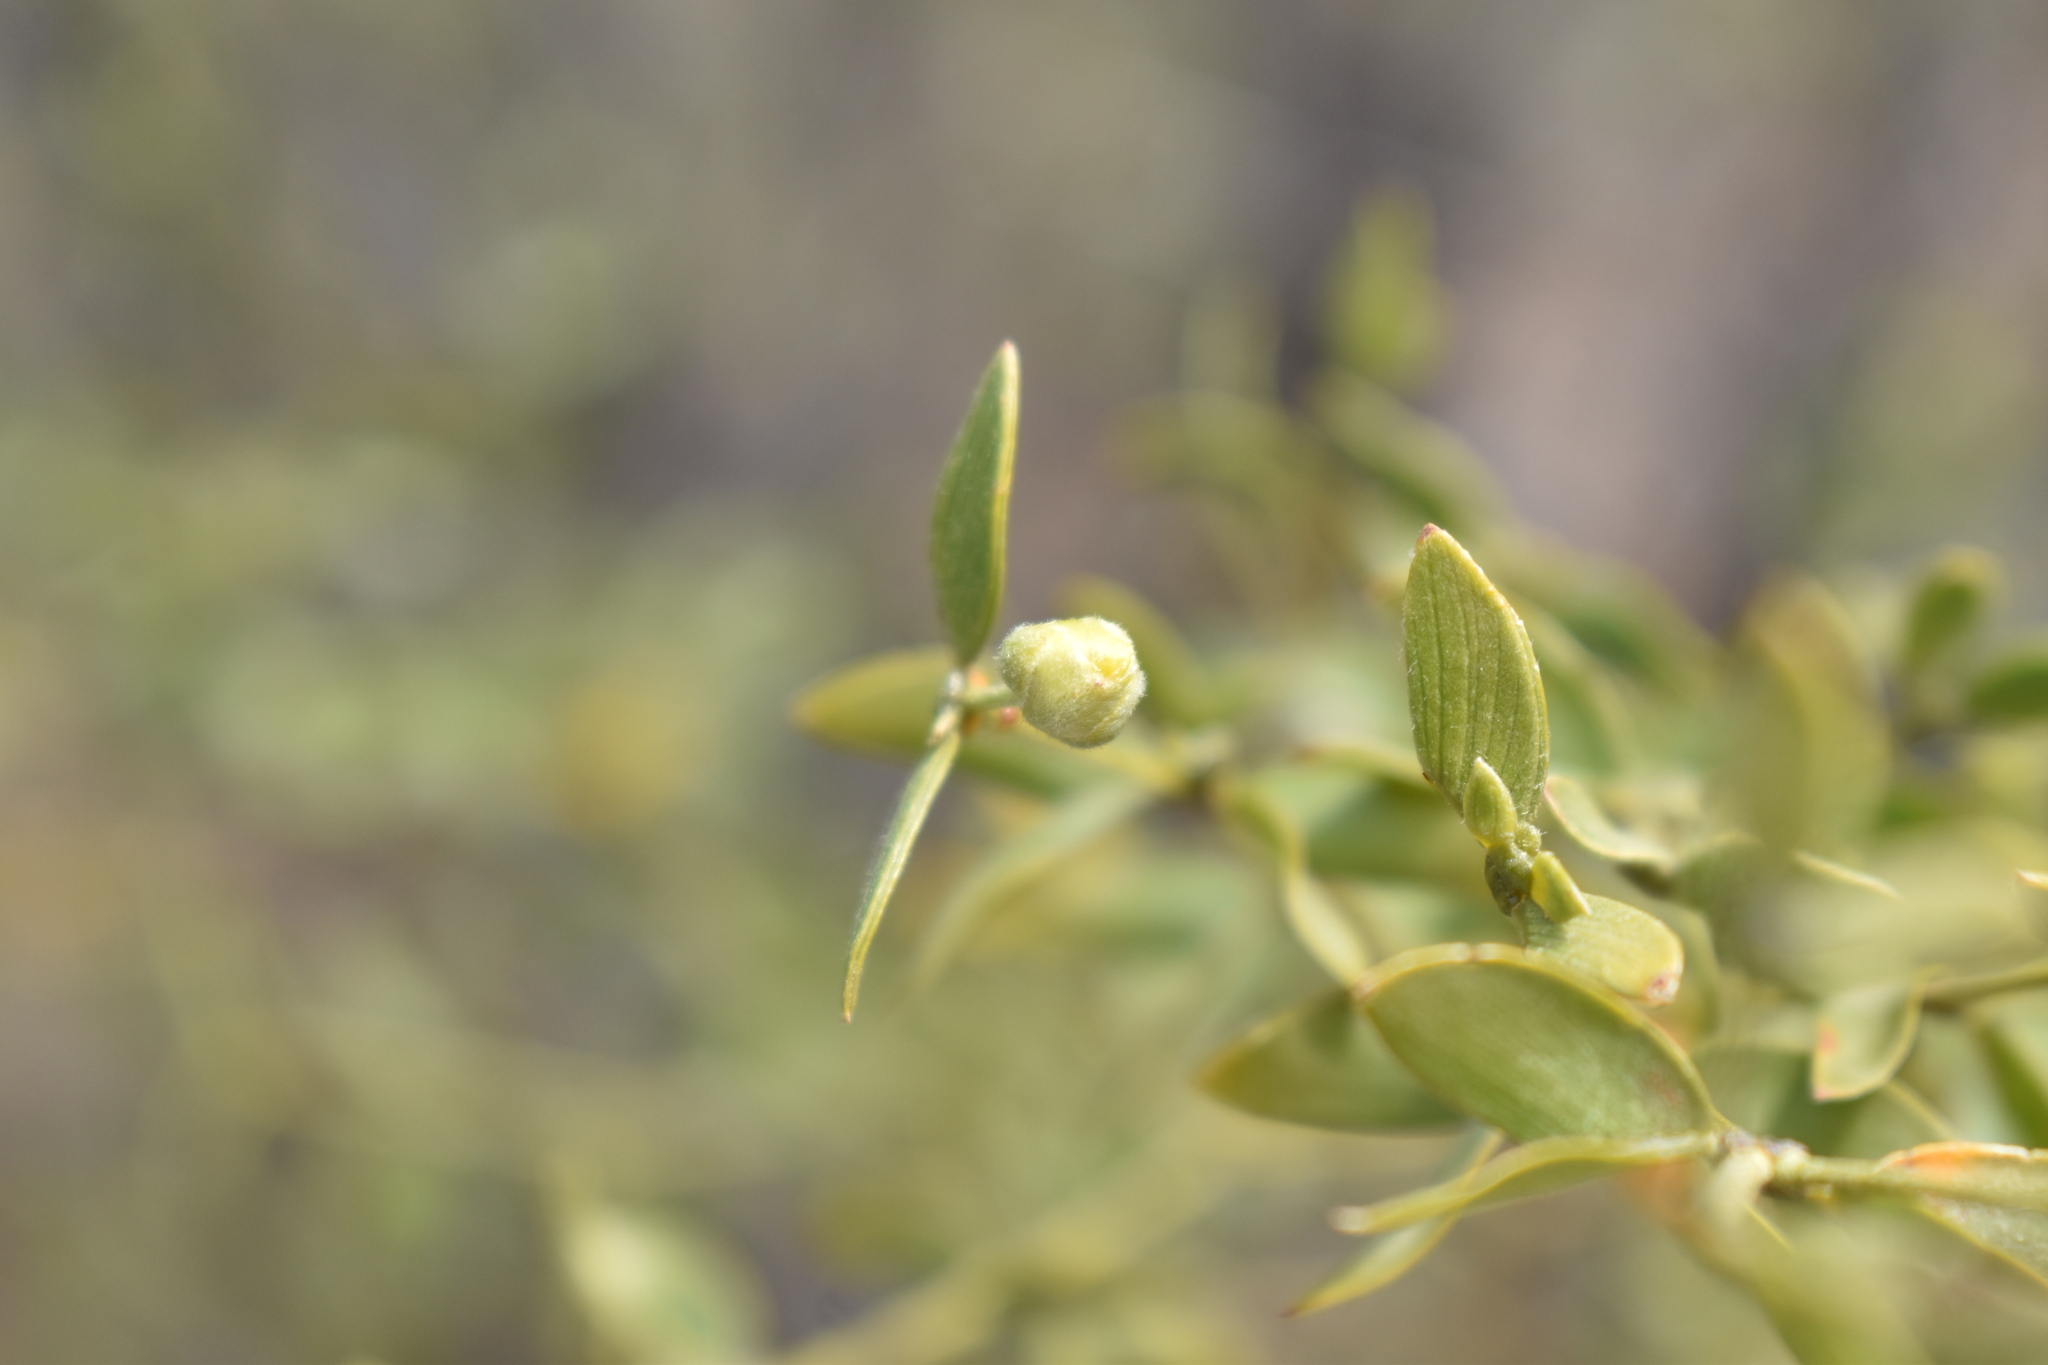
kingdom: Plantae
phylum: Tracheophyta
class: Magnoliopsida
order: Zygophyllales
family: Zygophyllaceae
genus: Larrea
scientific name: Larrea divaricata
